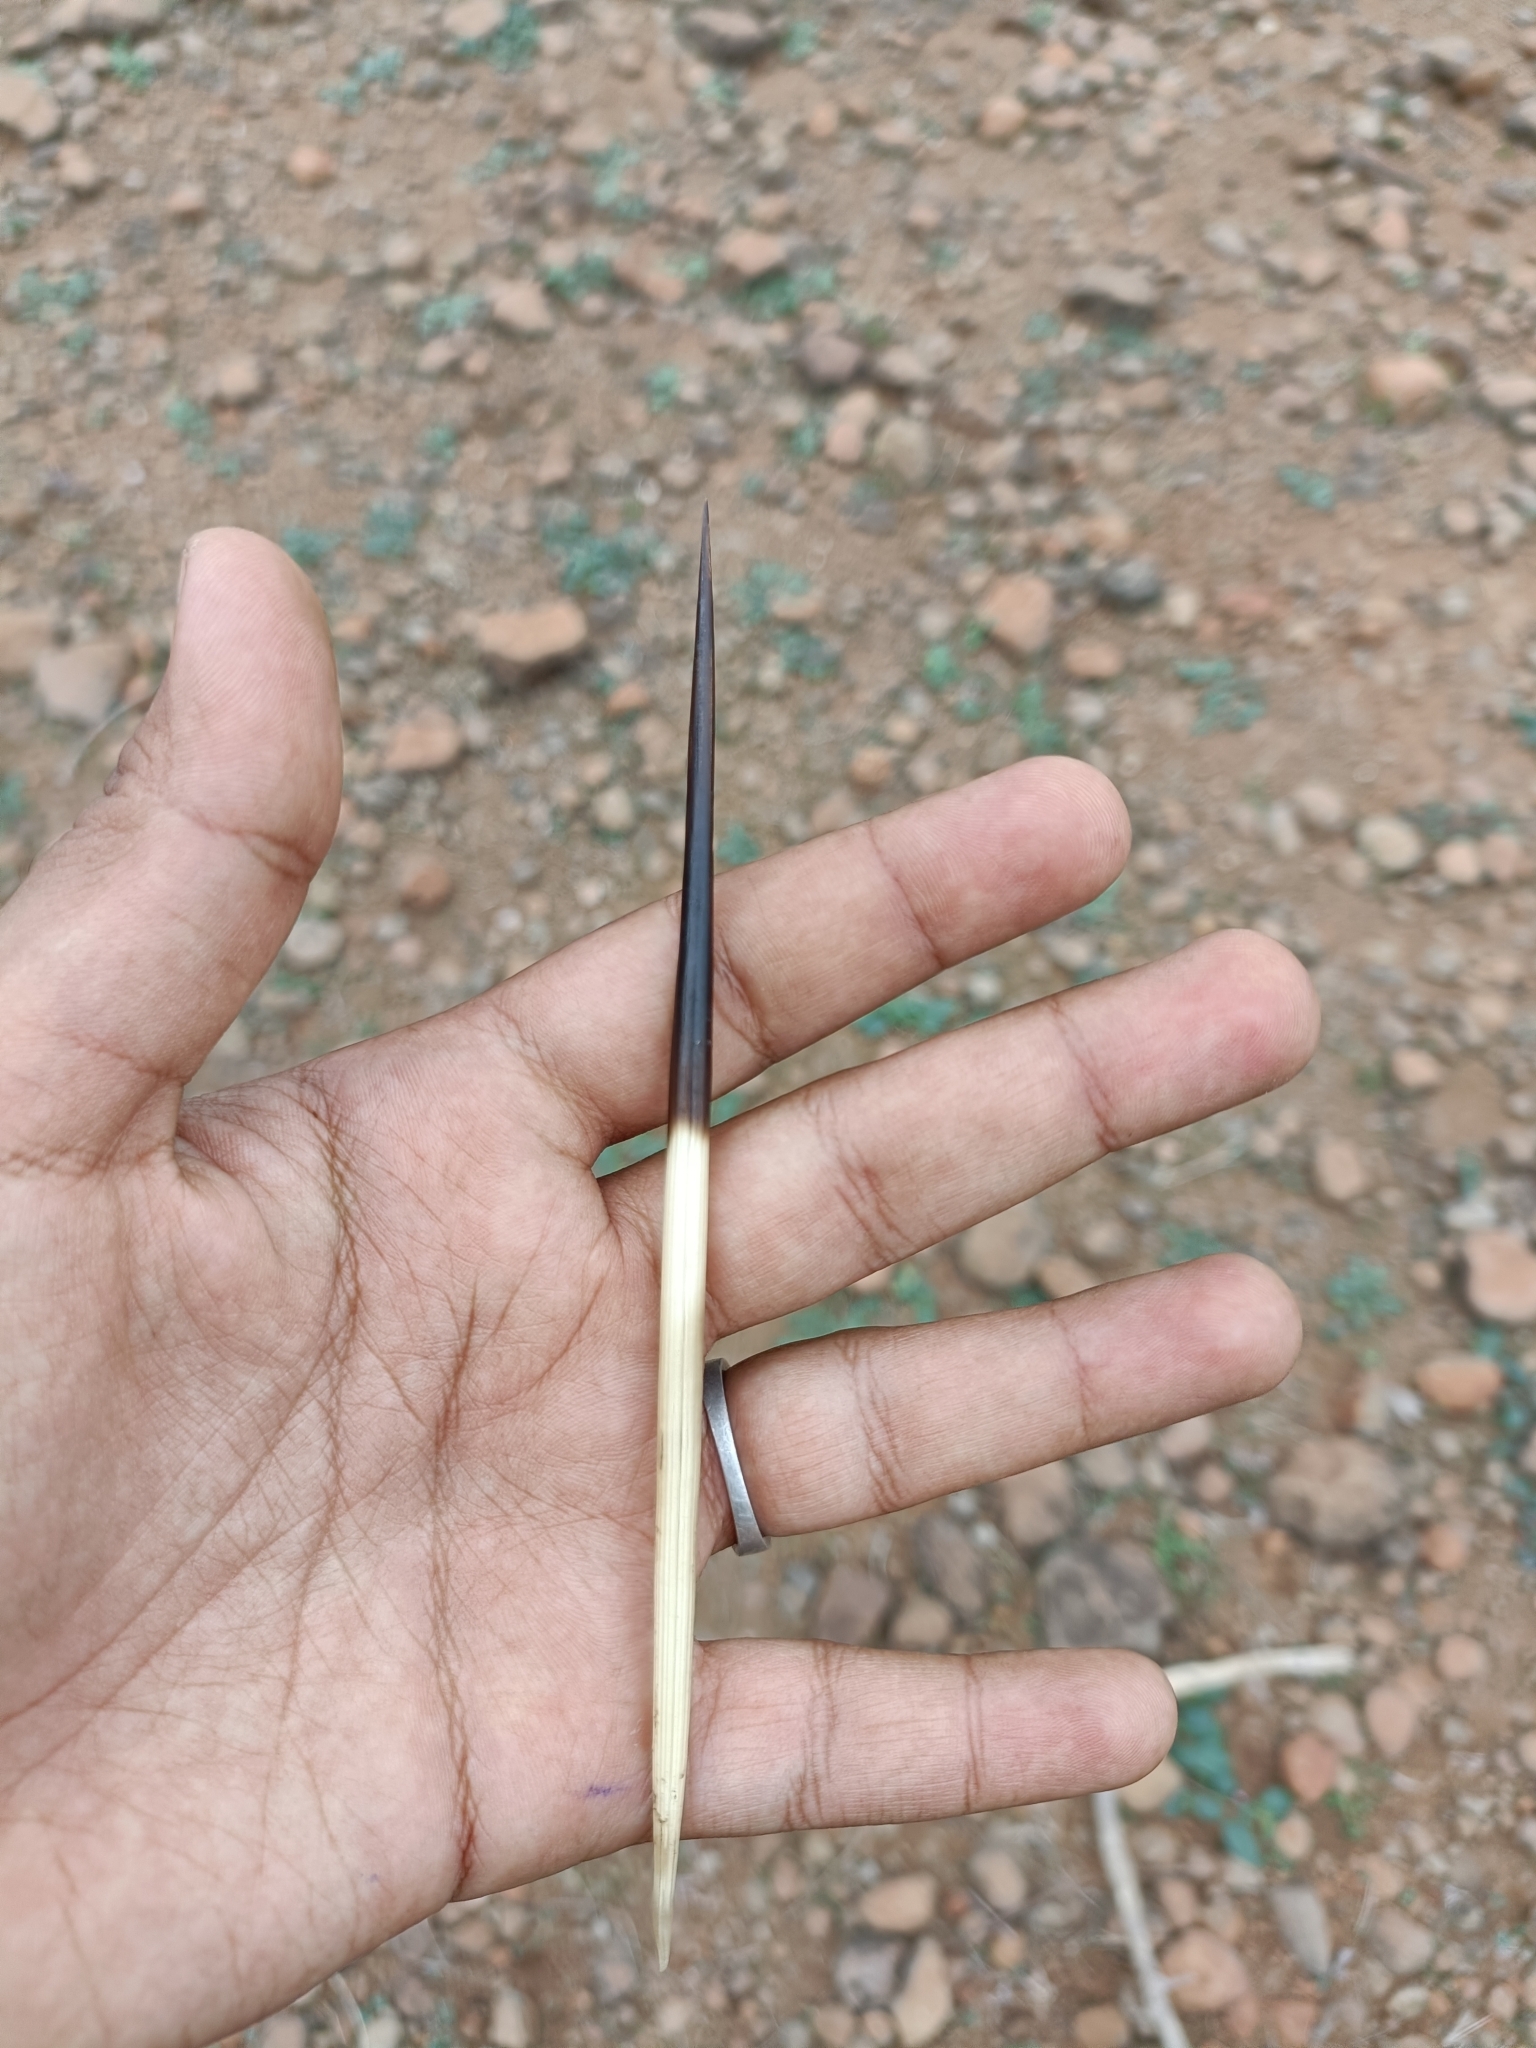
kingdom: Animalia
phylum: Chordata
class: Mammalia
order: Rodentia
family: Hystricidae
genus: Hystrix
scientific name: Hystrix indica
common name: Indian crested porcupine
